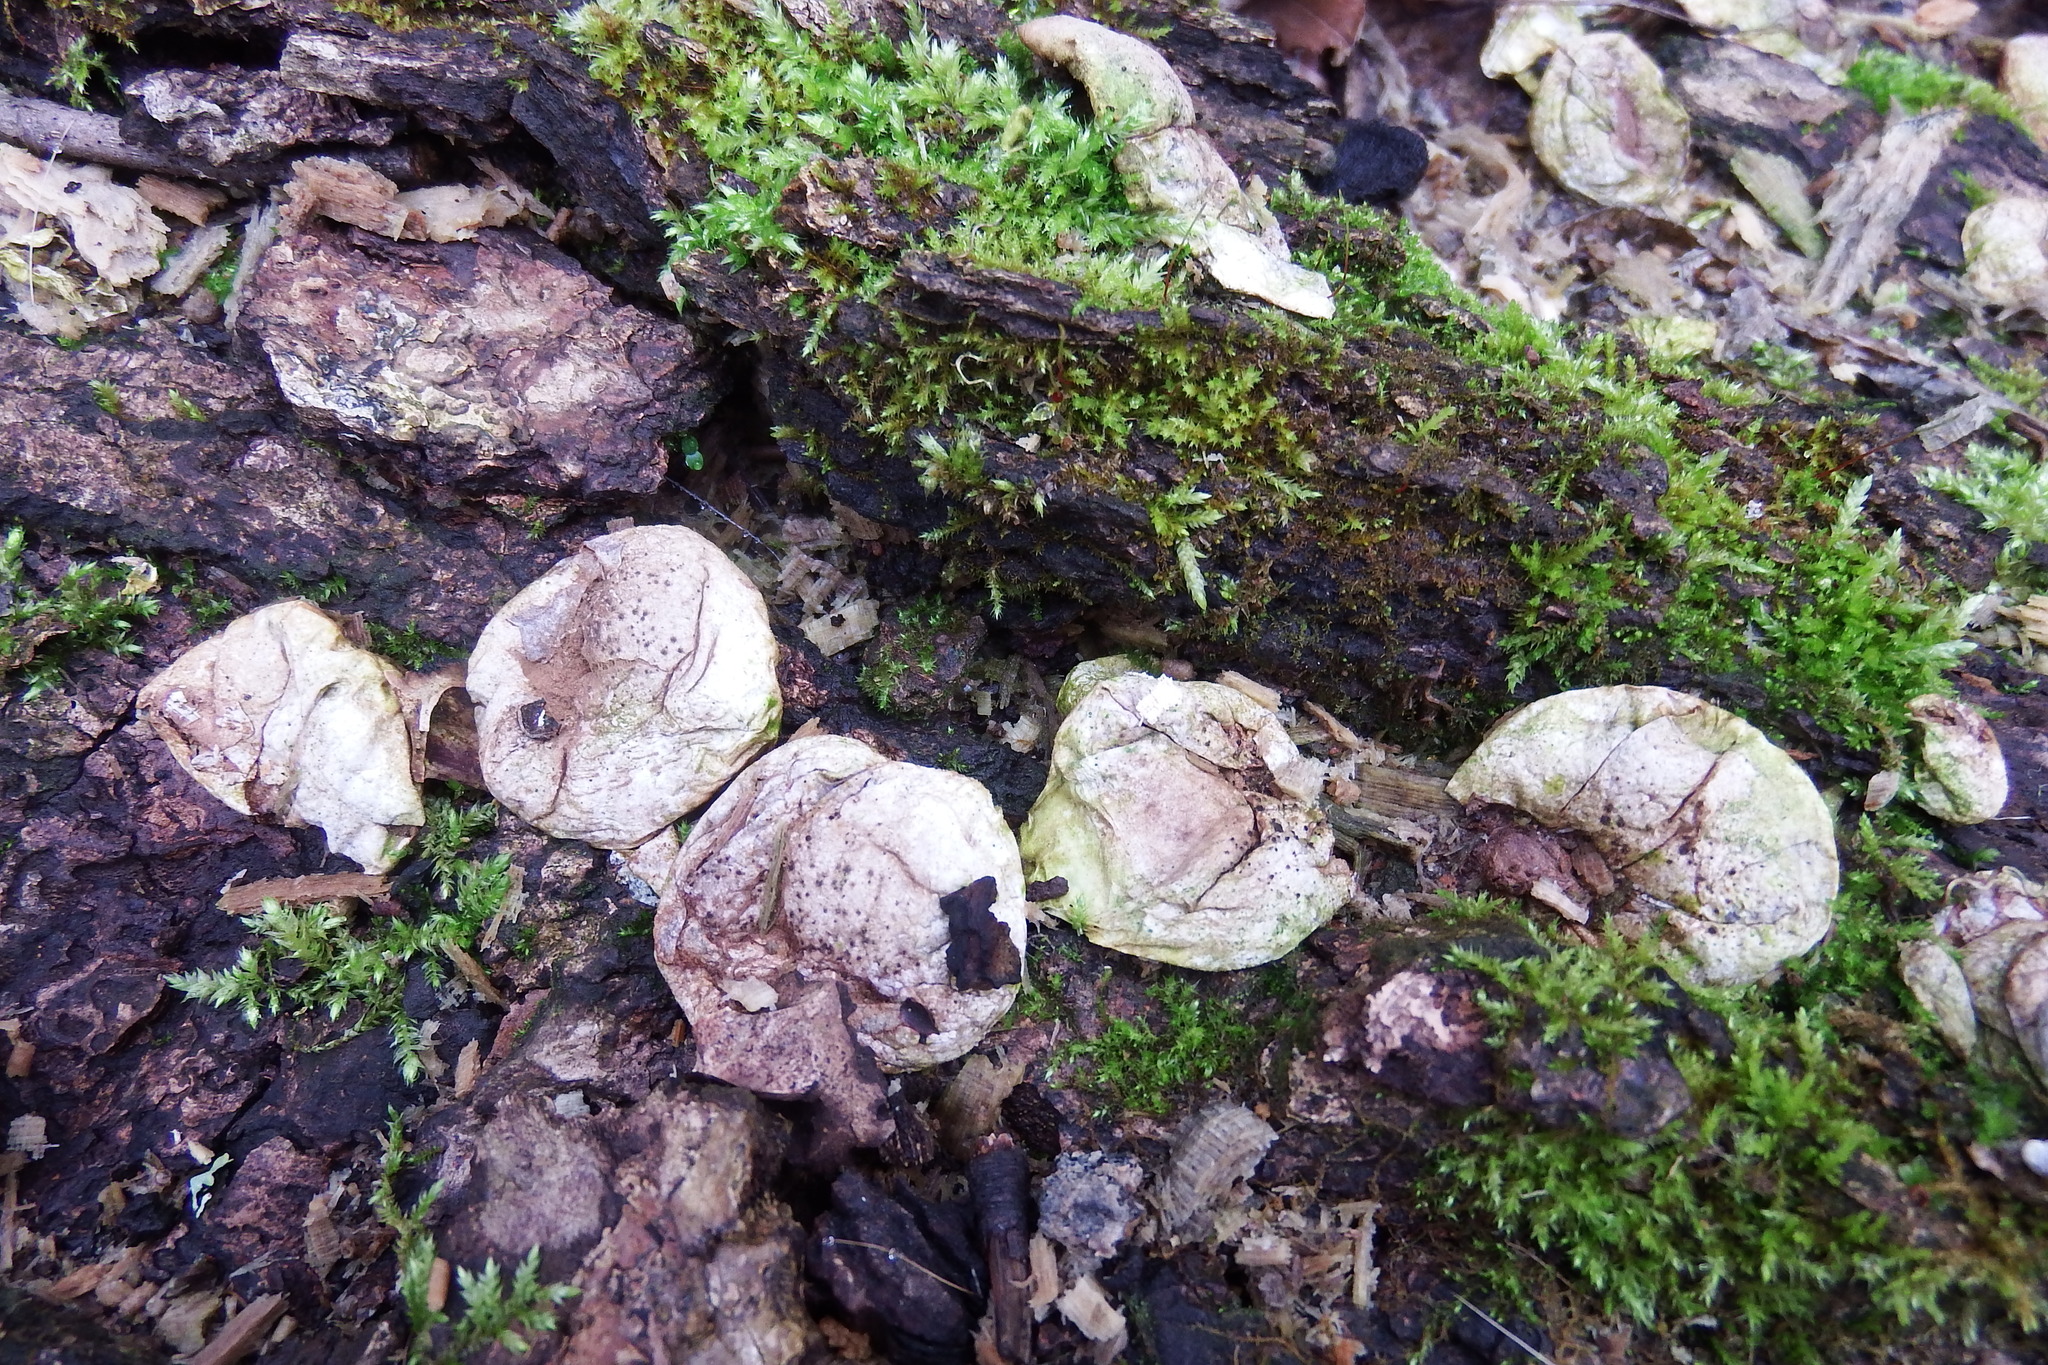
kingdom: Fungi
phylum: Basidiomycota
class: Agaricomycetes
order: Agaricales
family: Lycoperdaceae
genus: Apioperdon
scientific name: Apioperdon pyriforme
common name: Pear-shaped puffball
